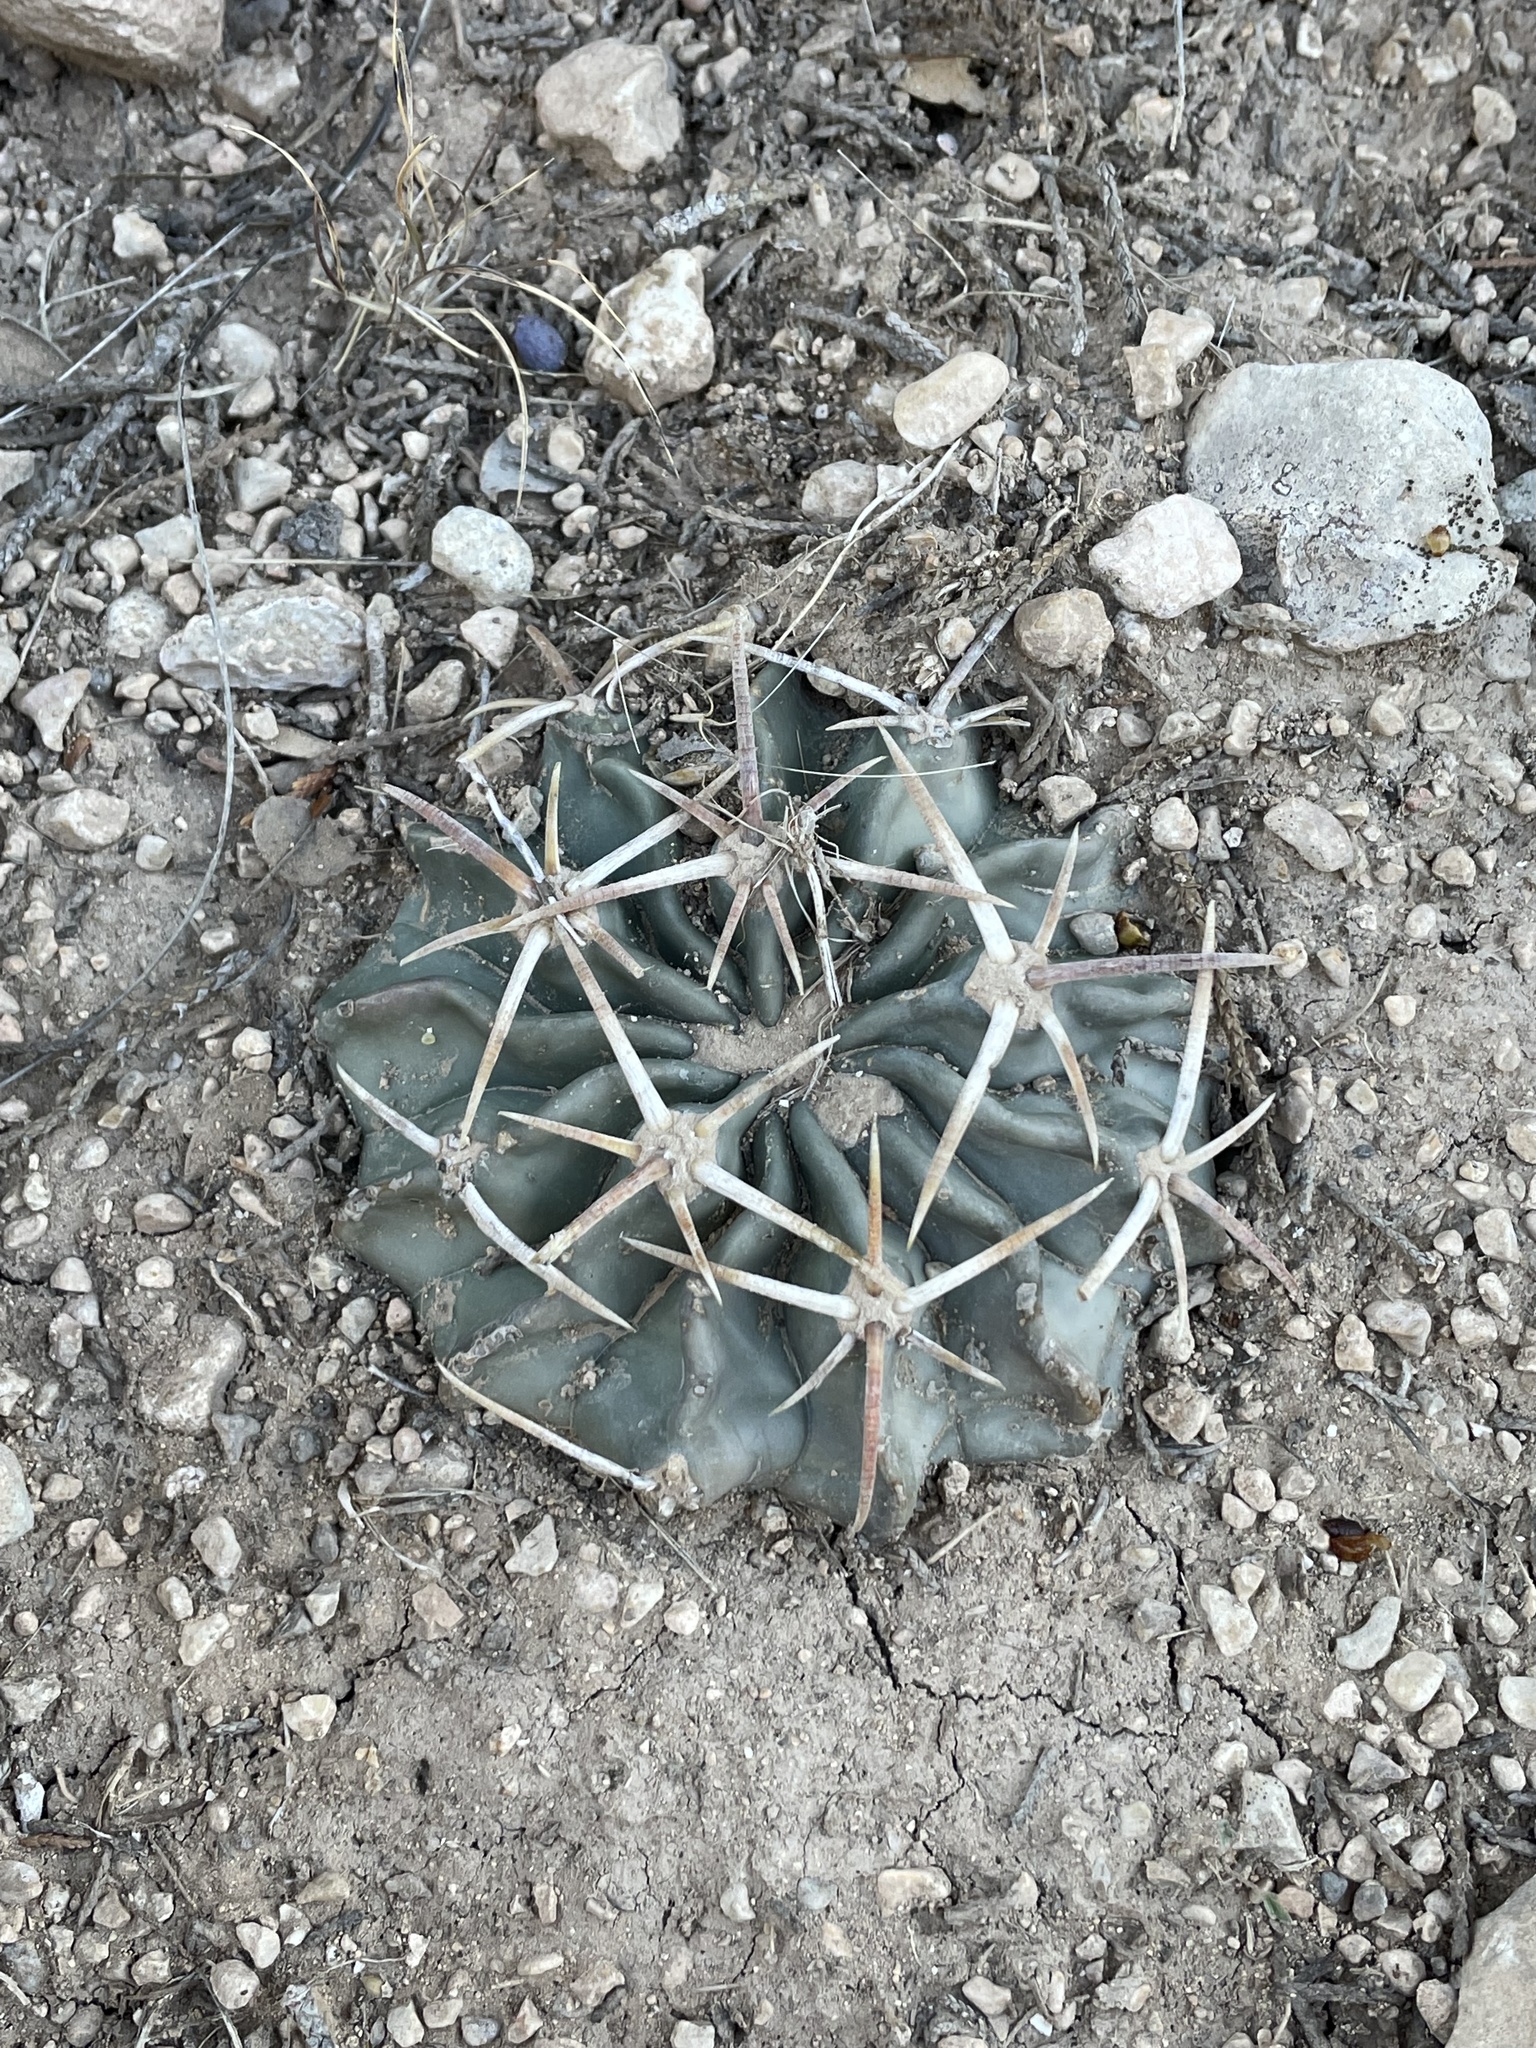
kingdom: Plantae
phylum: Tracheophyta
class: Magnoliopsida
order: Caryophyllales
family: Cactaceae
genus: Echinocactus
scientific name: Echinocactus texensis
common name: Devil's pincushion
